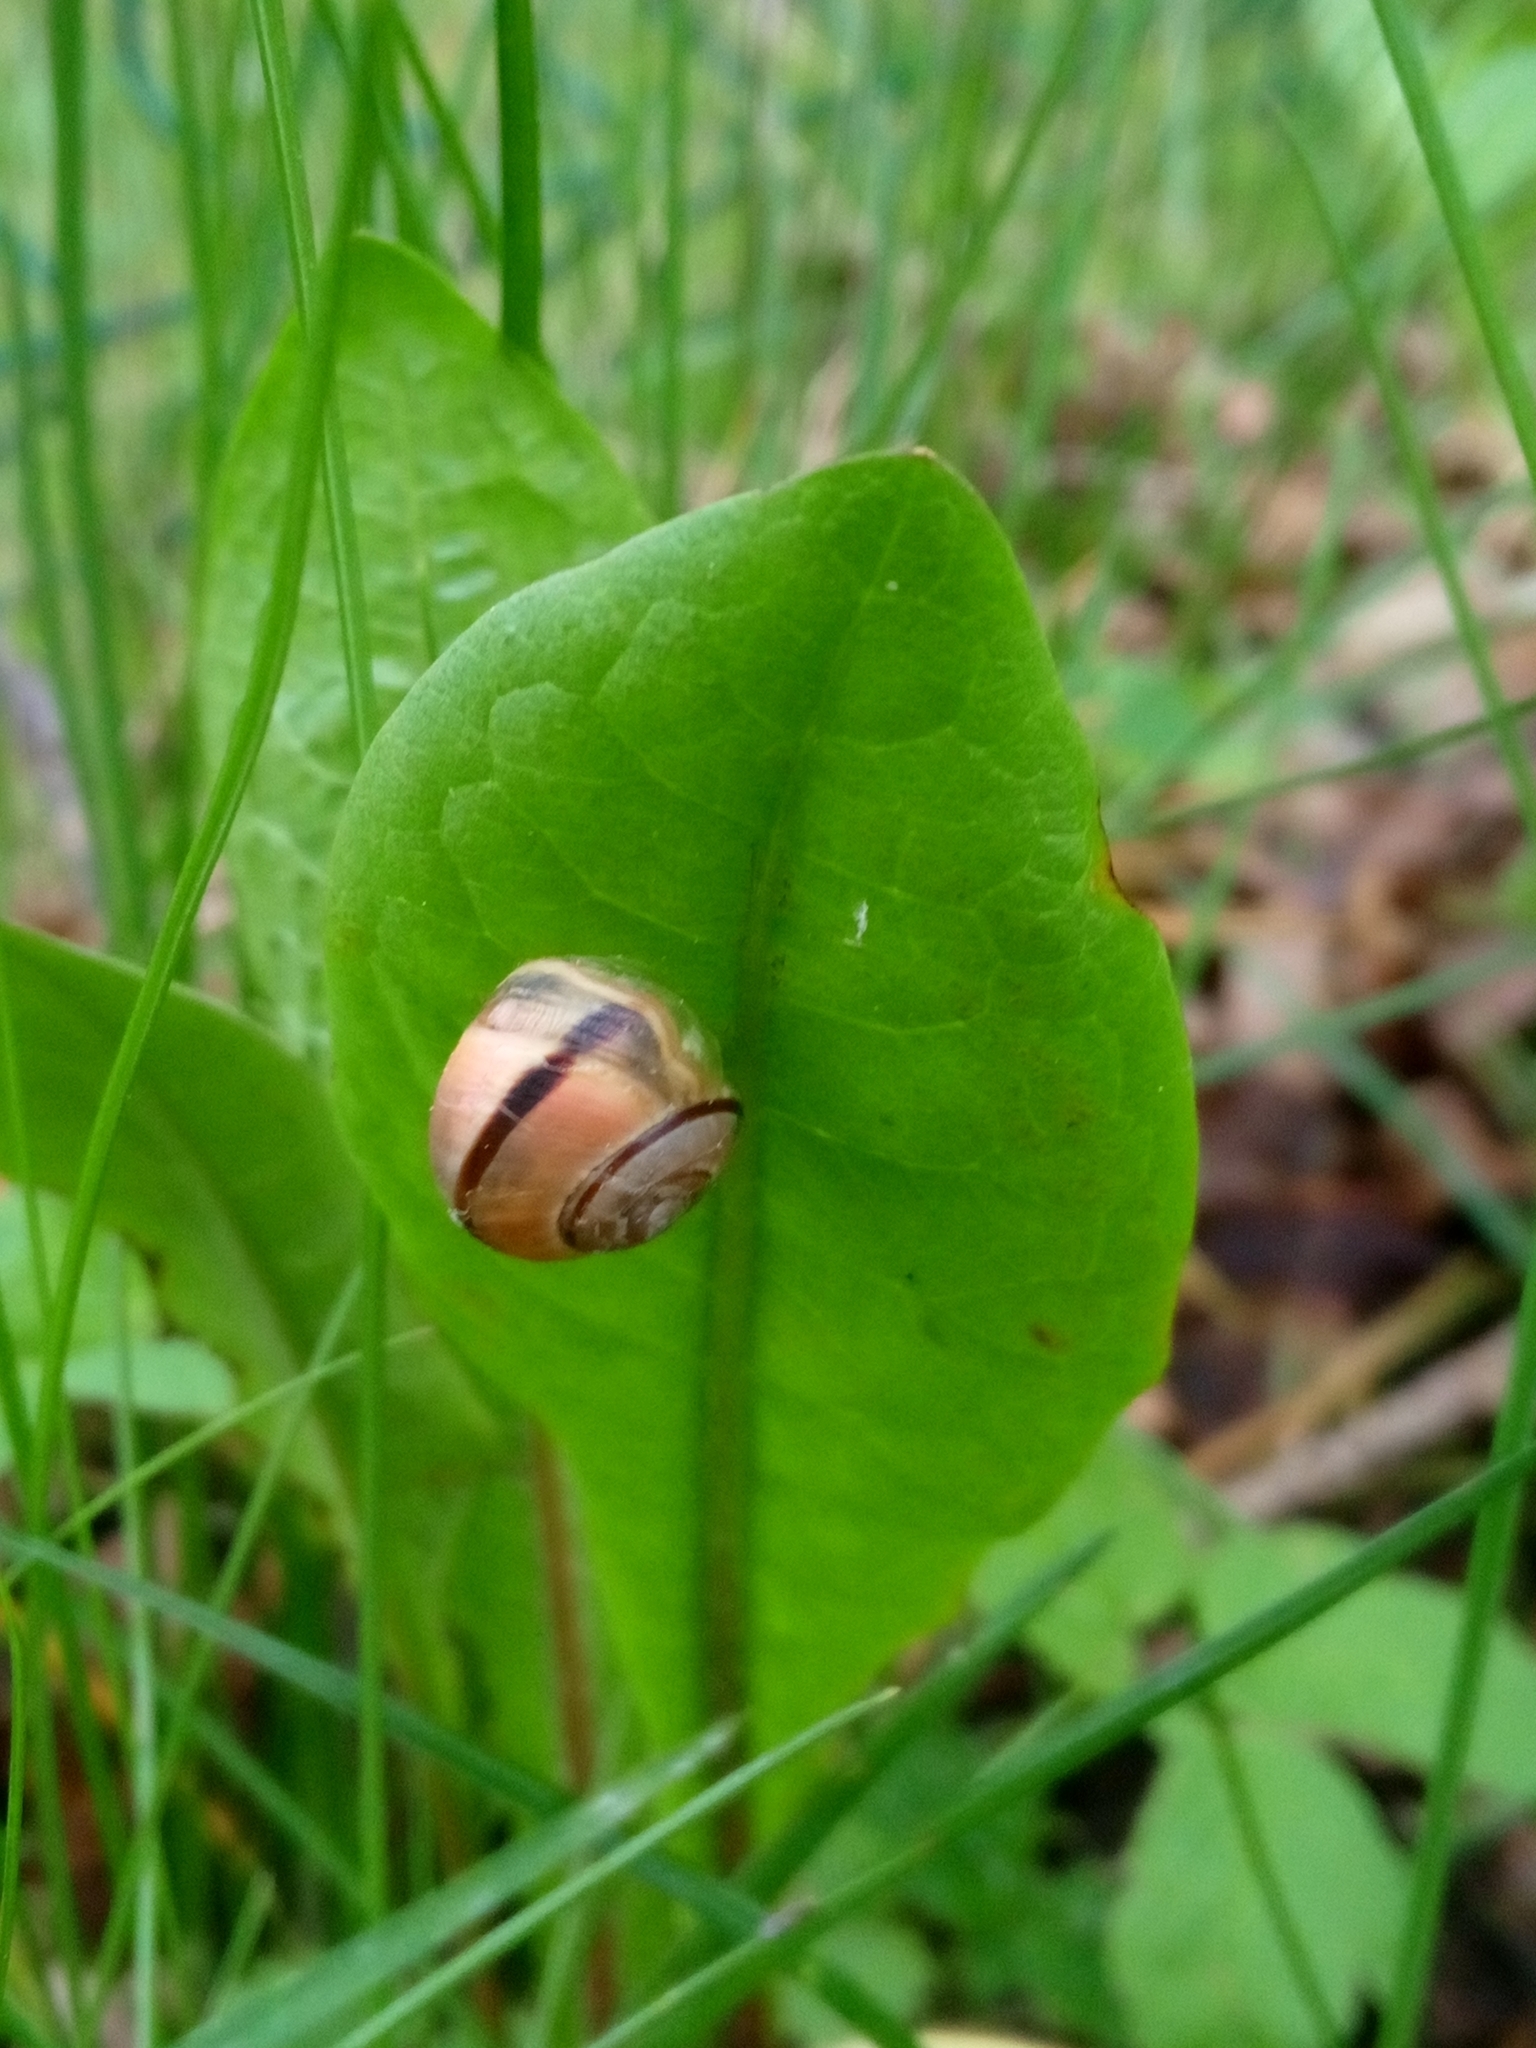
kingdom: Animalia
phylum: Mollusca
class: Gastropoda
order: Stylommatophora
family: Helicidae
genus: Cepaea
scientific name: Cepaea nemoralis
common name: Grovesnail
